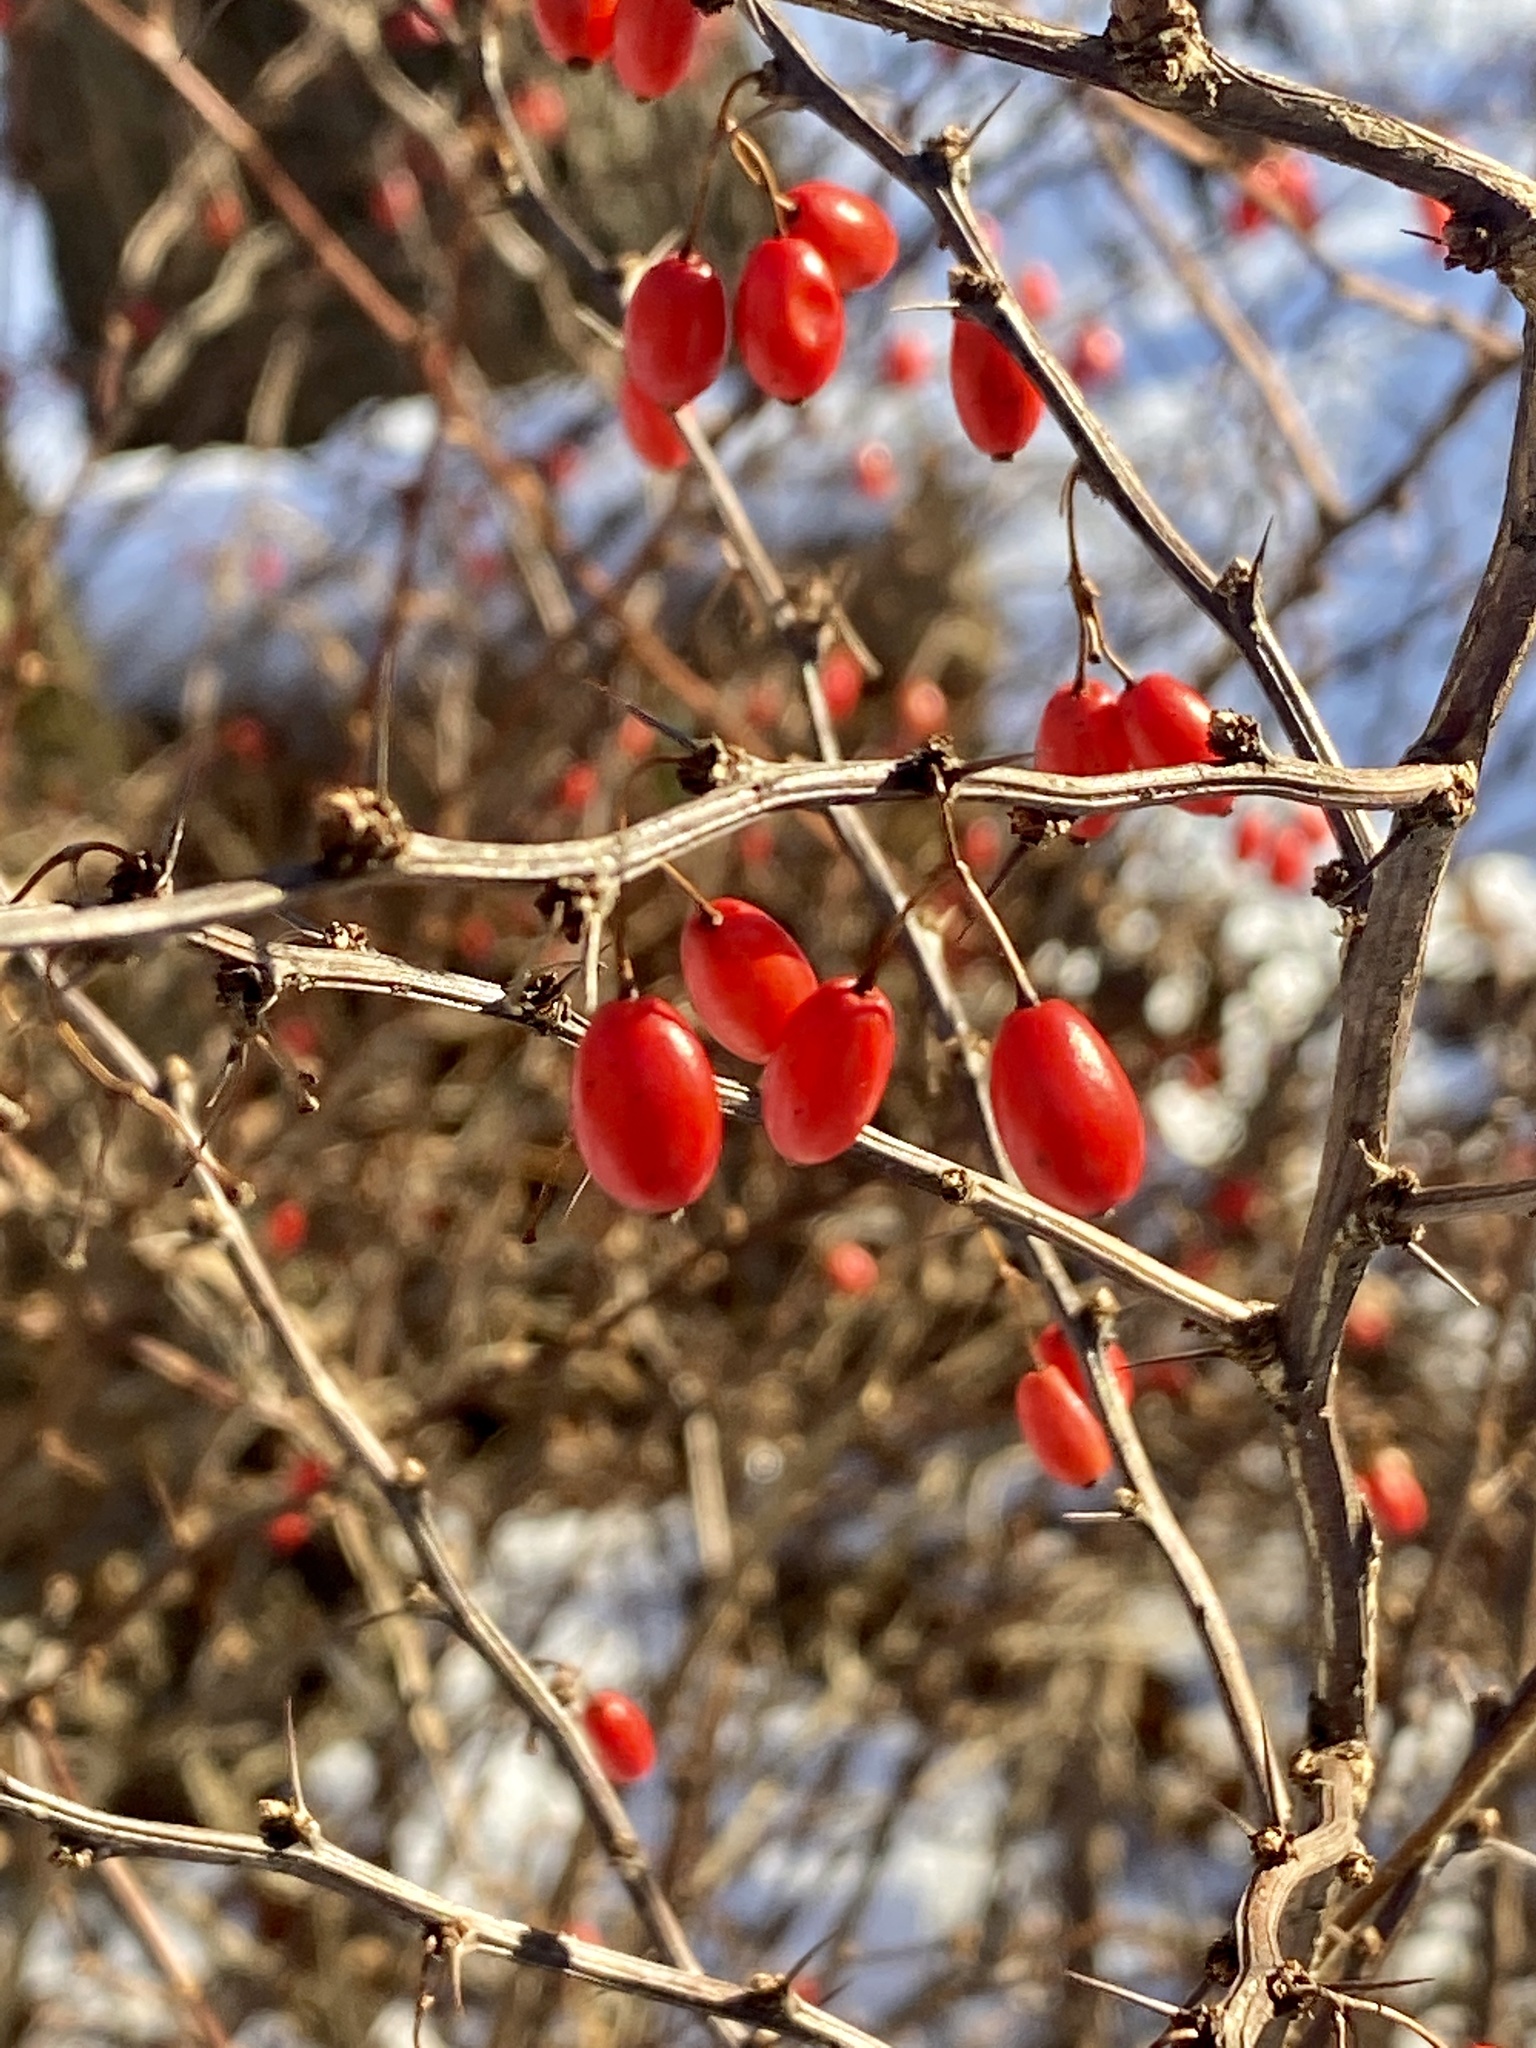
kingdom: Plantae
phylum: Tracheophyta
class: Magnoliopsida
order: Ranunculales
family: Berberidaceae
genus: Berberis
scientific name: Berberis thunbergii
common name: Japanese barberry
